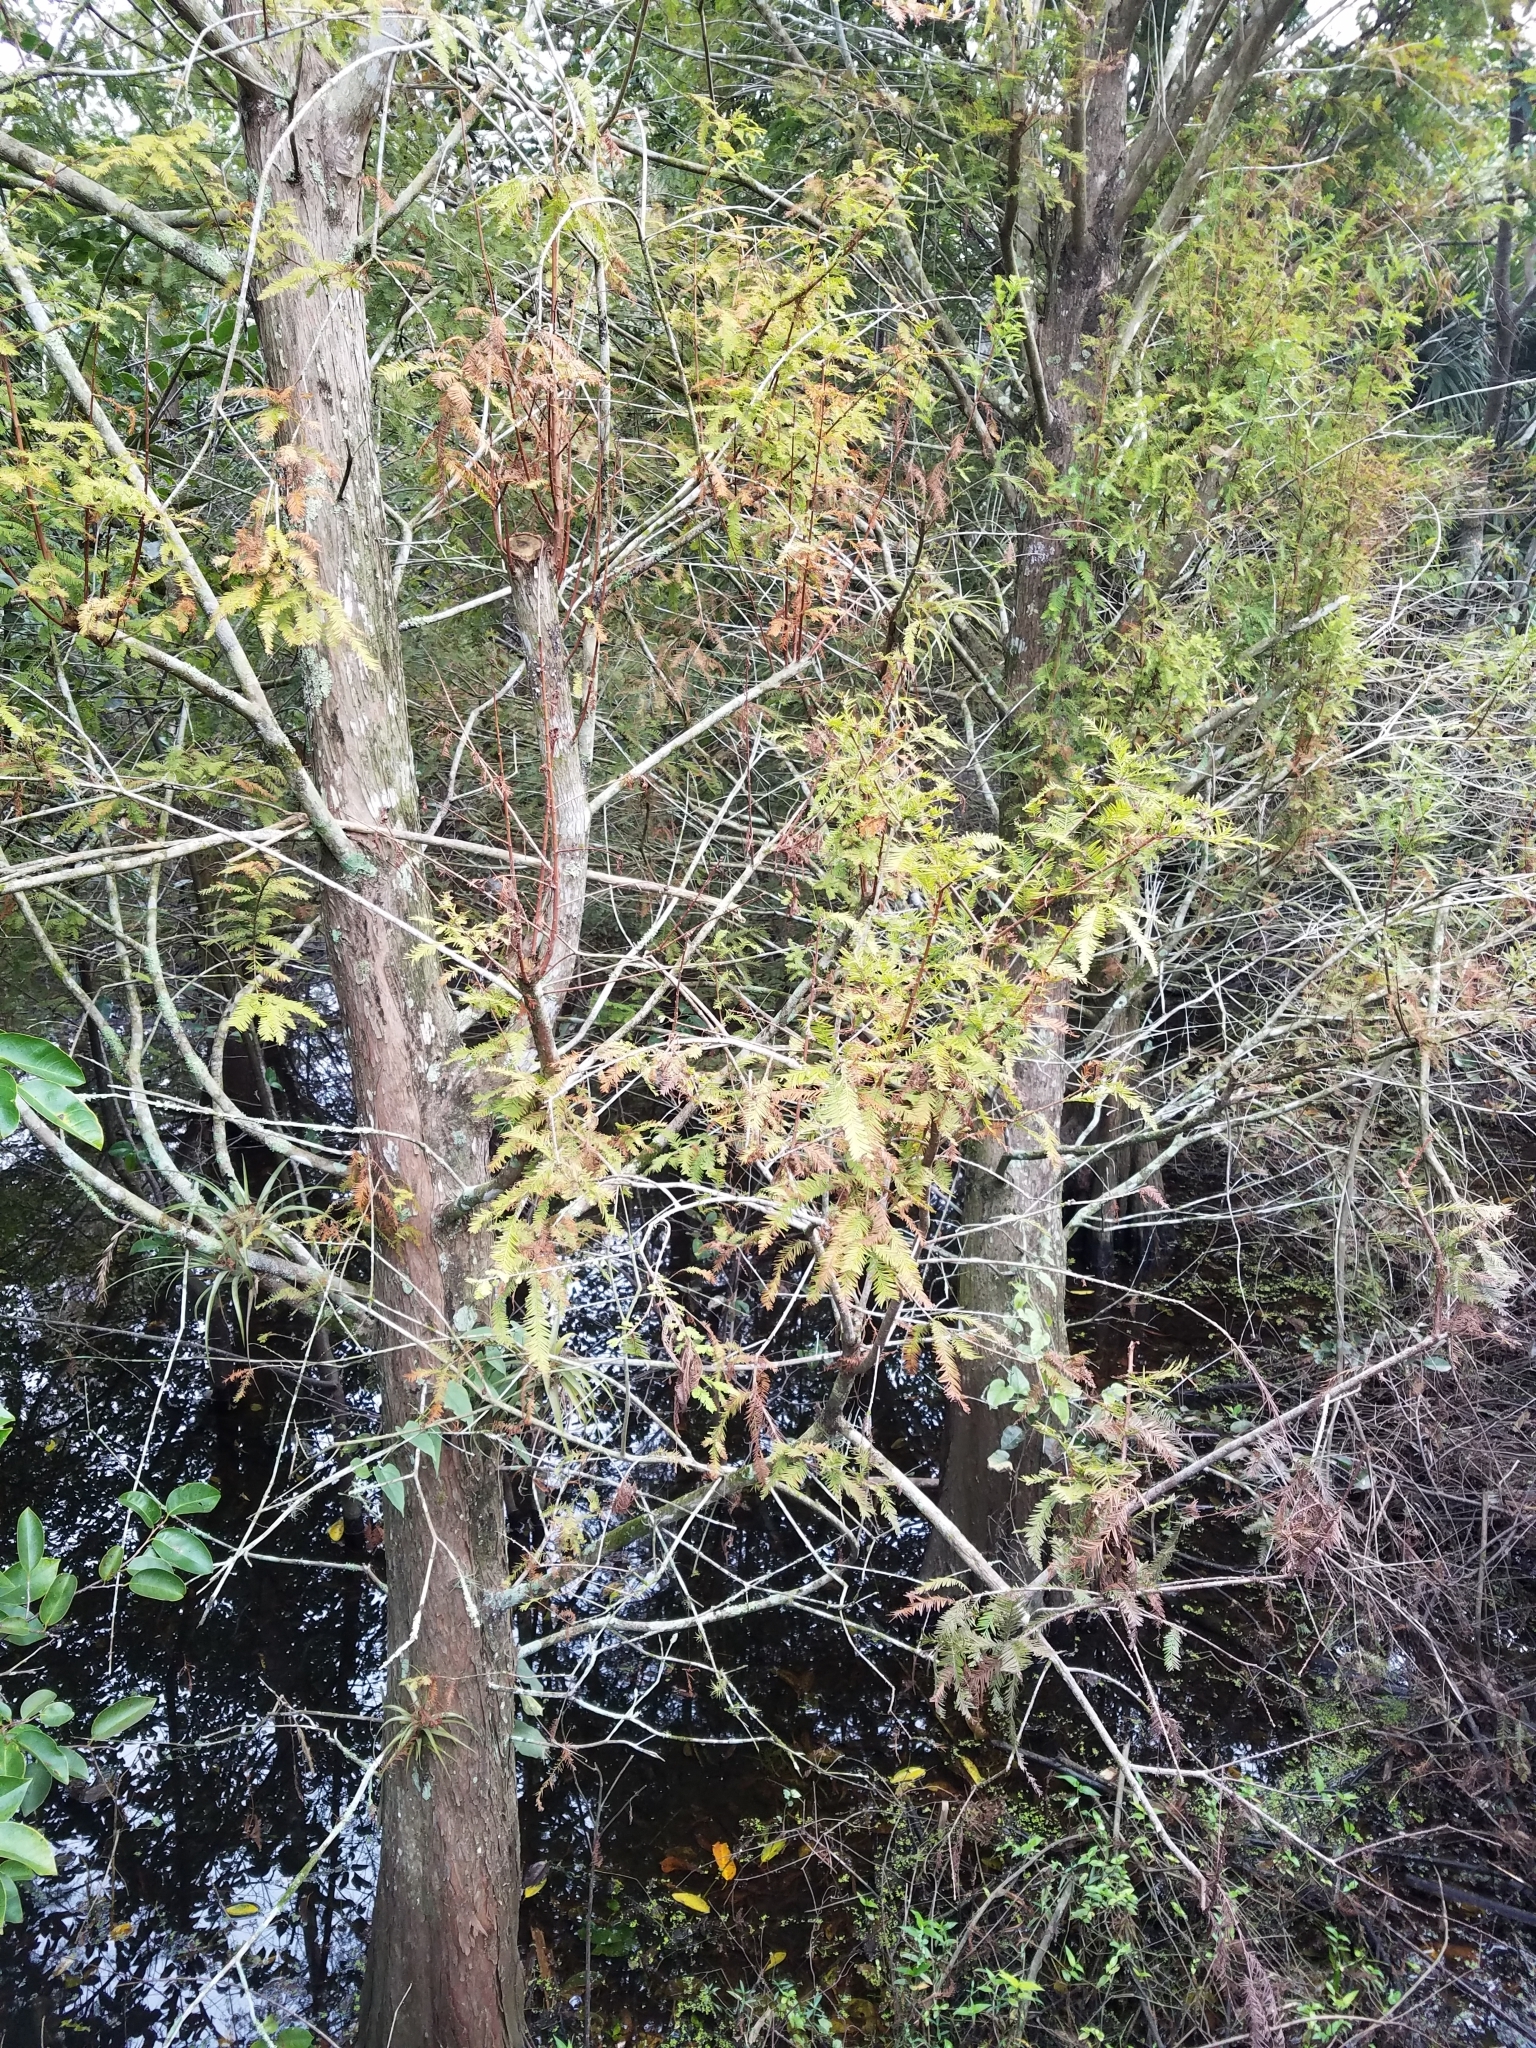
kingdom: Plantae
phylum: Tracheophyta
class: Pinopsida
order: Pinales
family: Cupressaceae
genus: Taxodium
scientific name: Taxodium distichum
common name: Bald cypress
